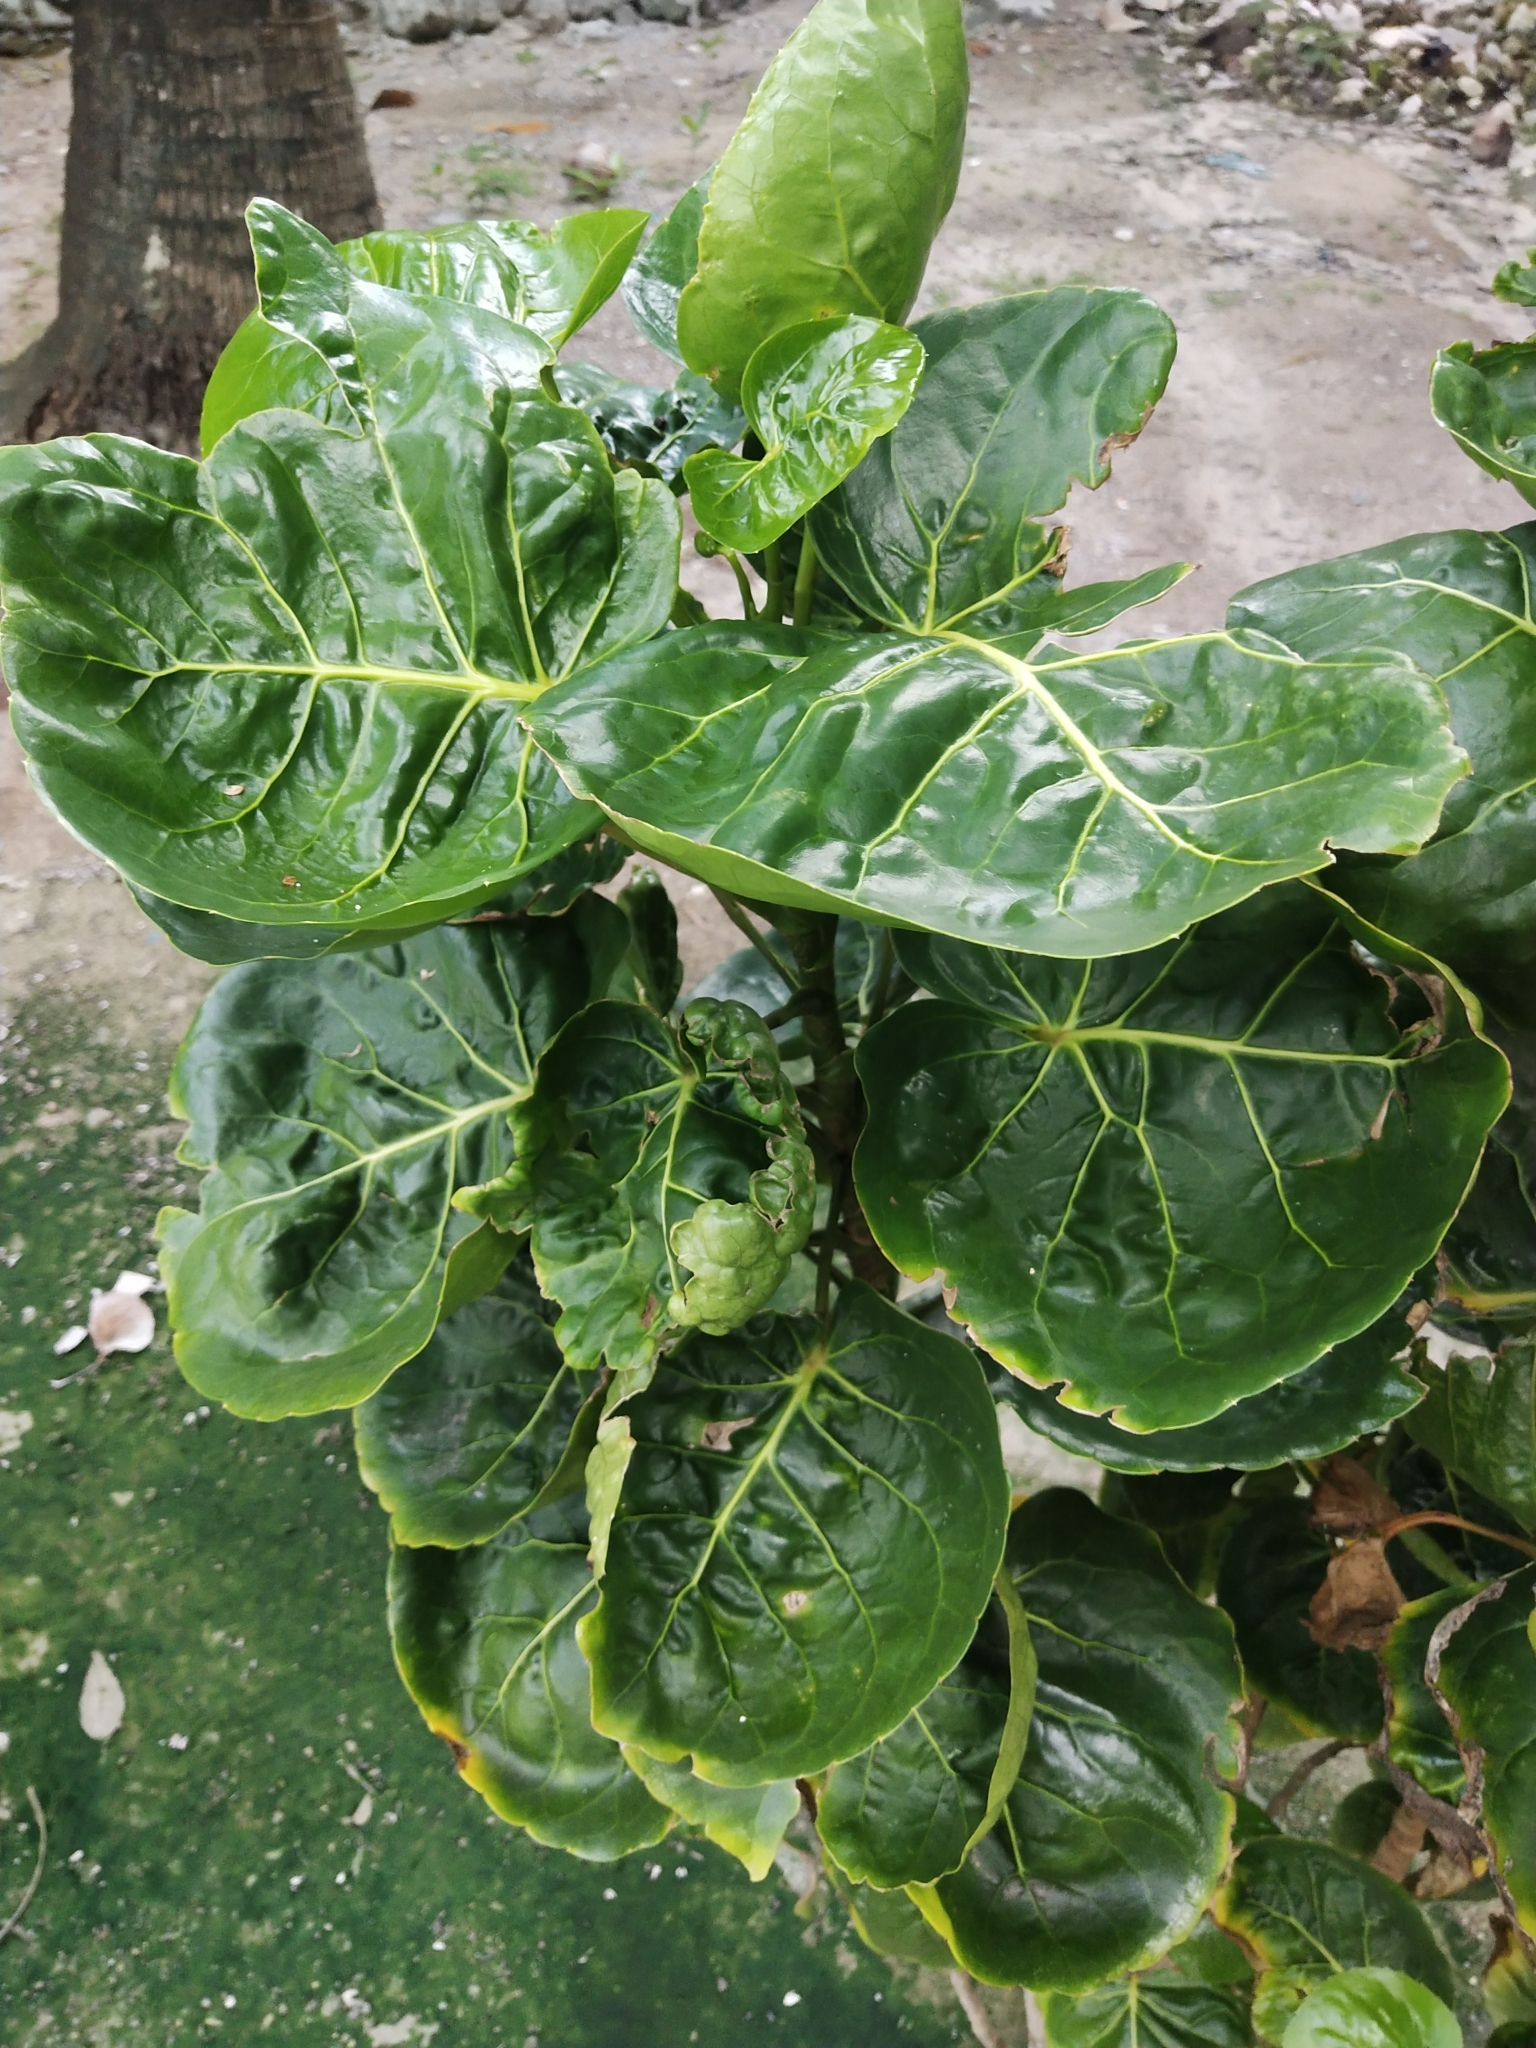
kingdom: Plantae
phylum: Tracheophyta
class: Magnoliopsida
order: Apiales
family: Araliaceae
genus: Polyscias
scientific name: Polyscias scutellaria
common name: Dinnerplate-aralia
